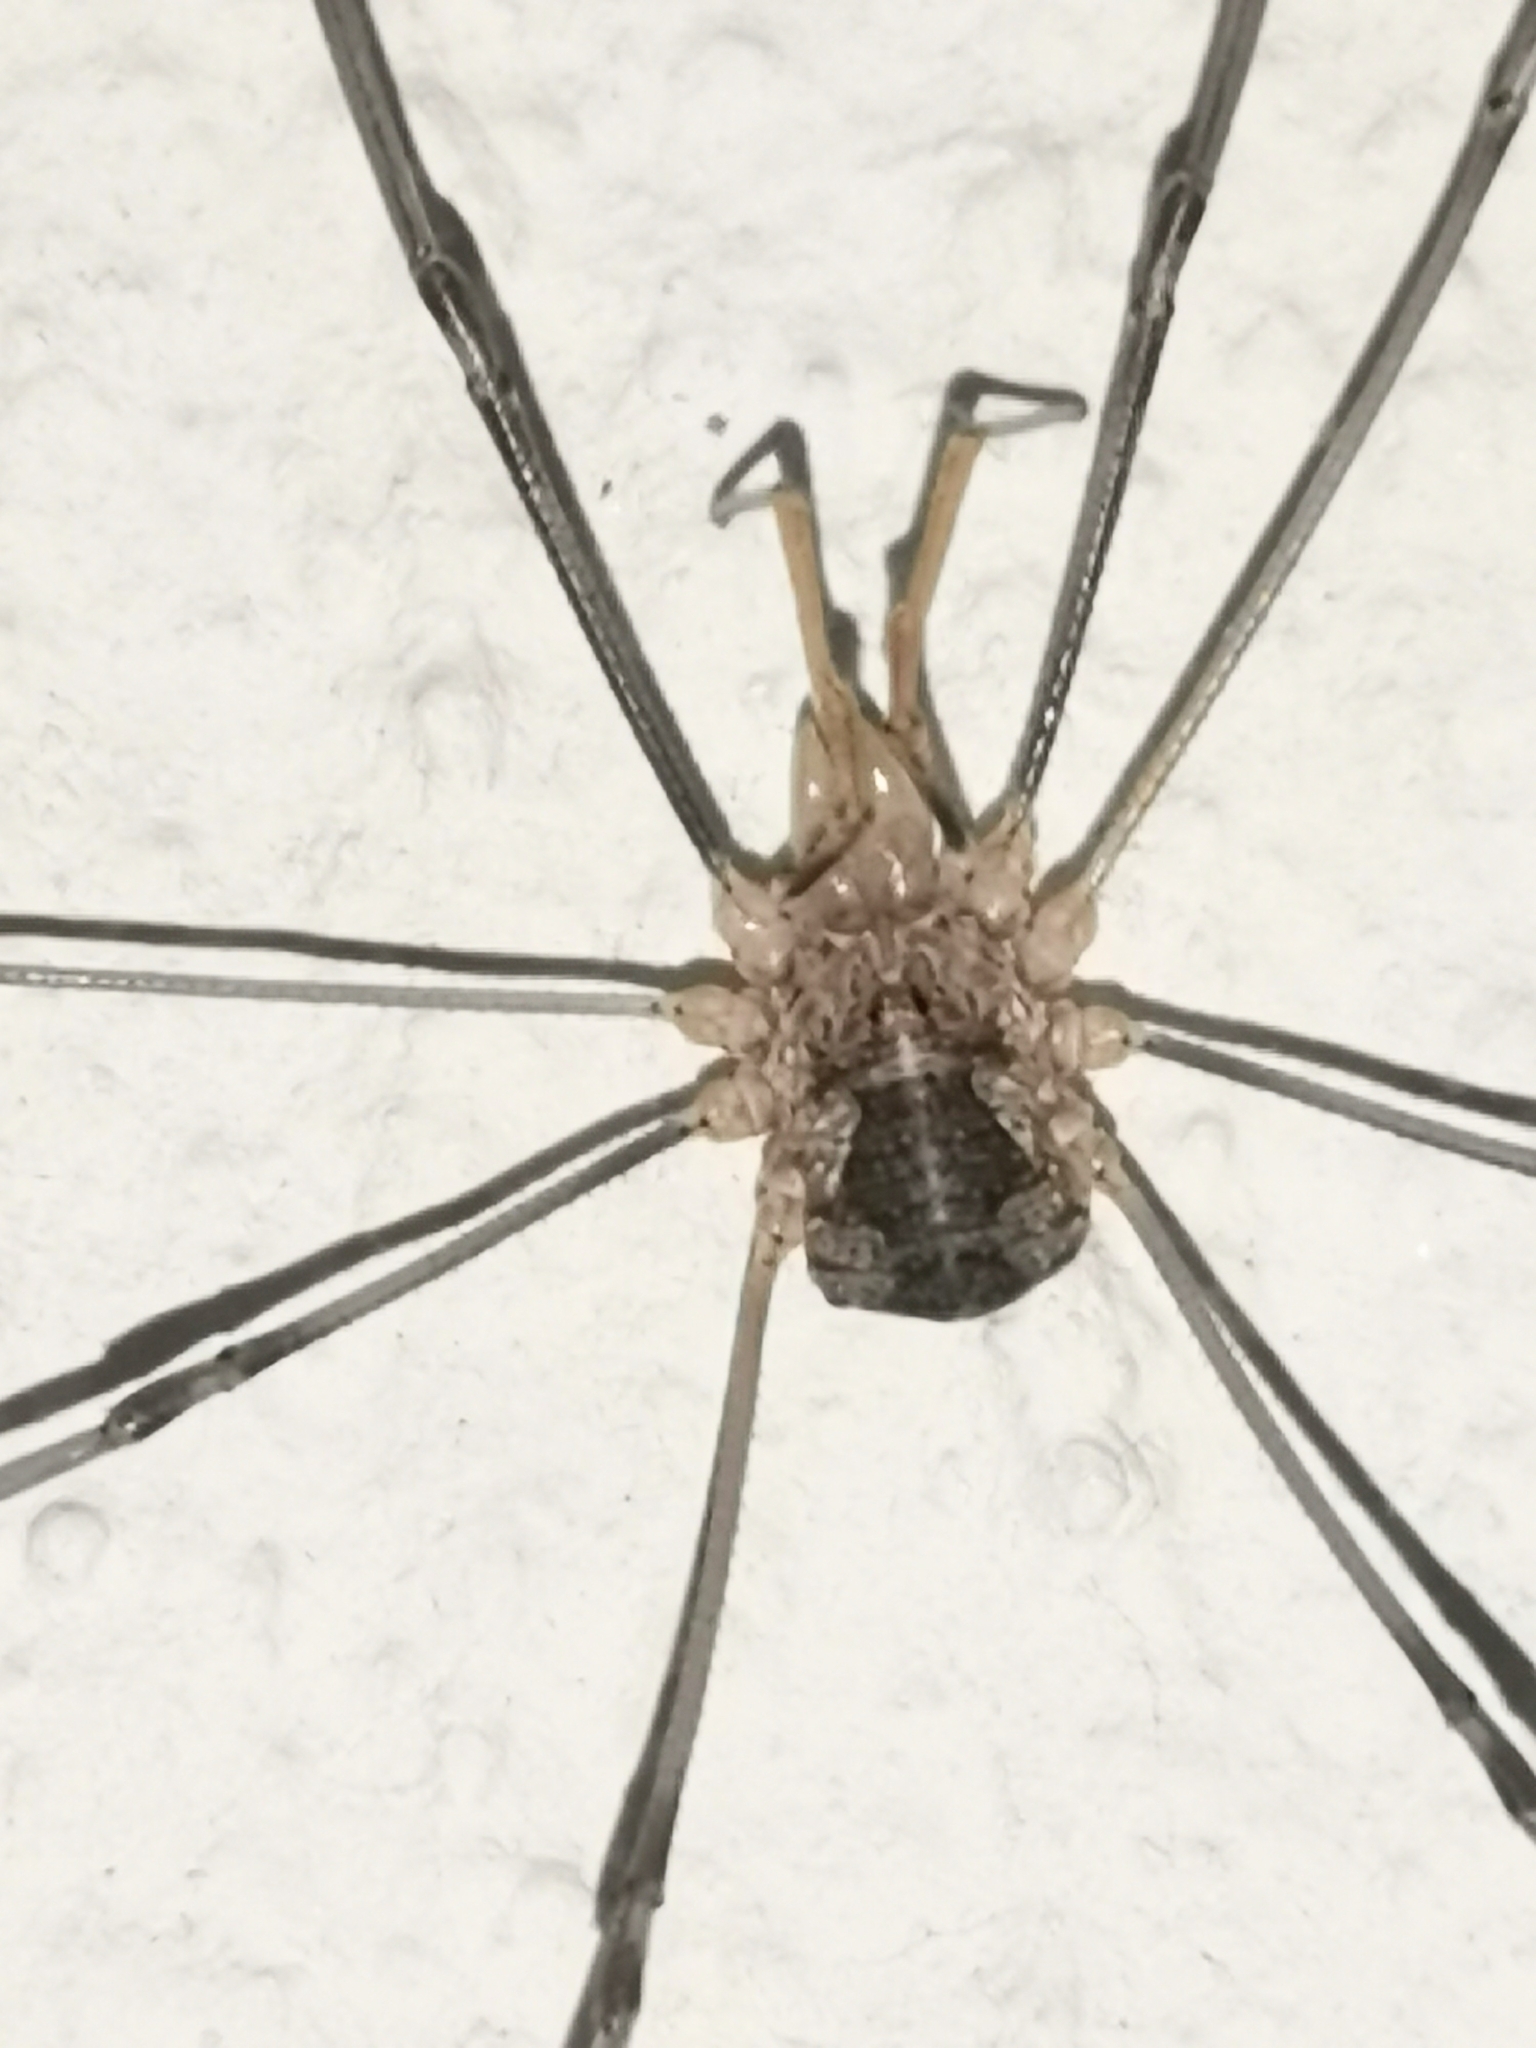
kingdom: Animalia
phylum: Arthropoda
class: Arachnida
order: Opiliones
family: Phalangiidae
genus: Phalangium
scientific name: Phalangium opilio
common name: Daddy longleg
